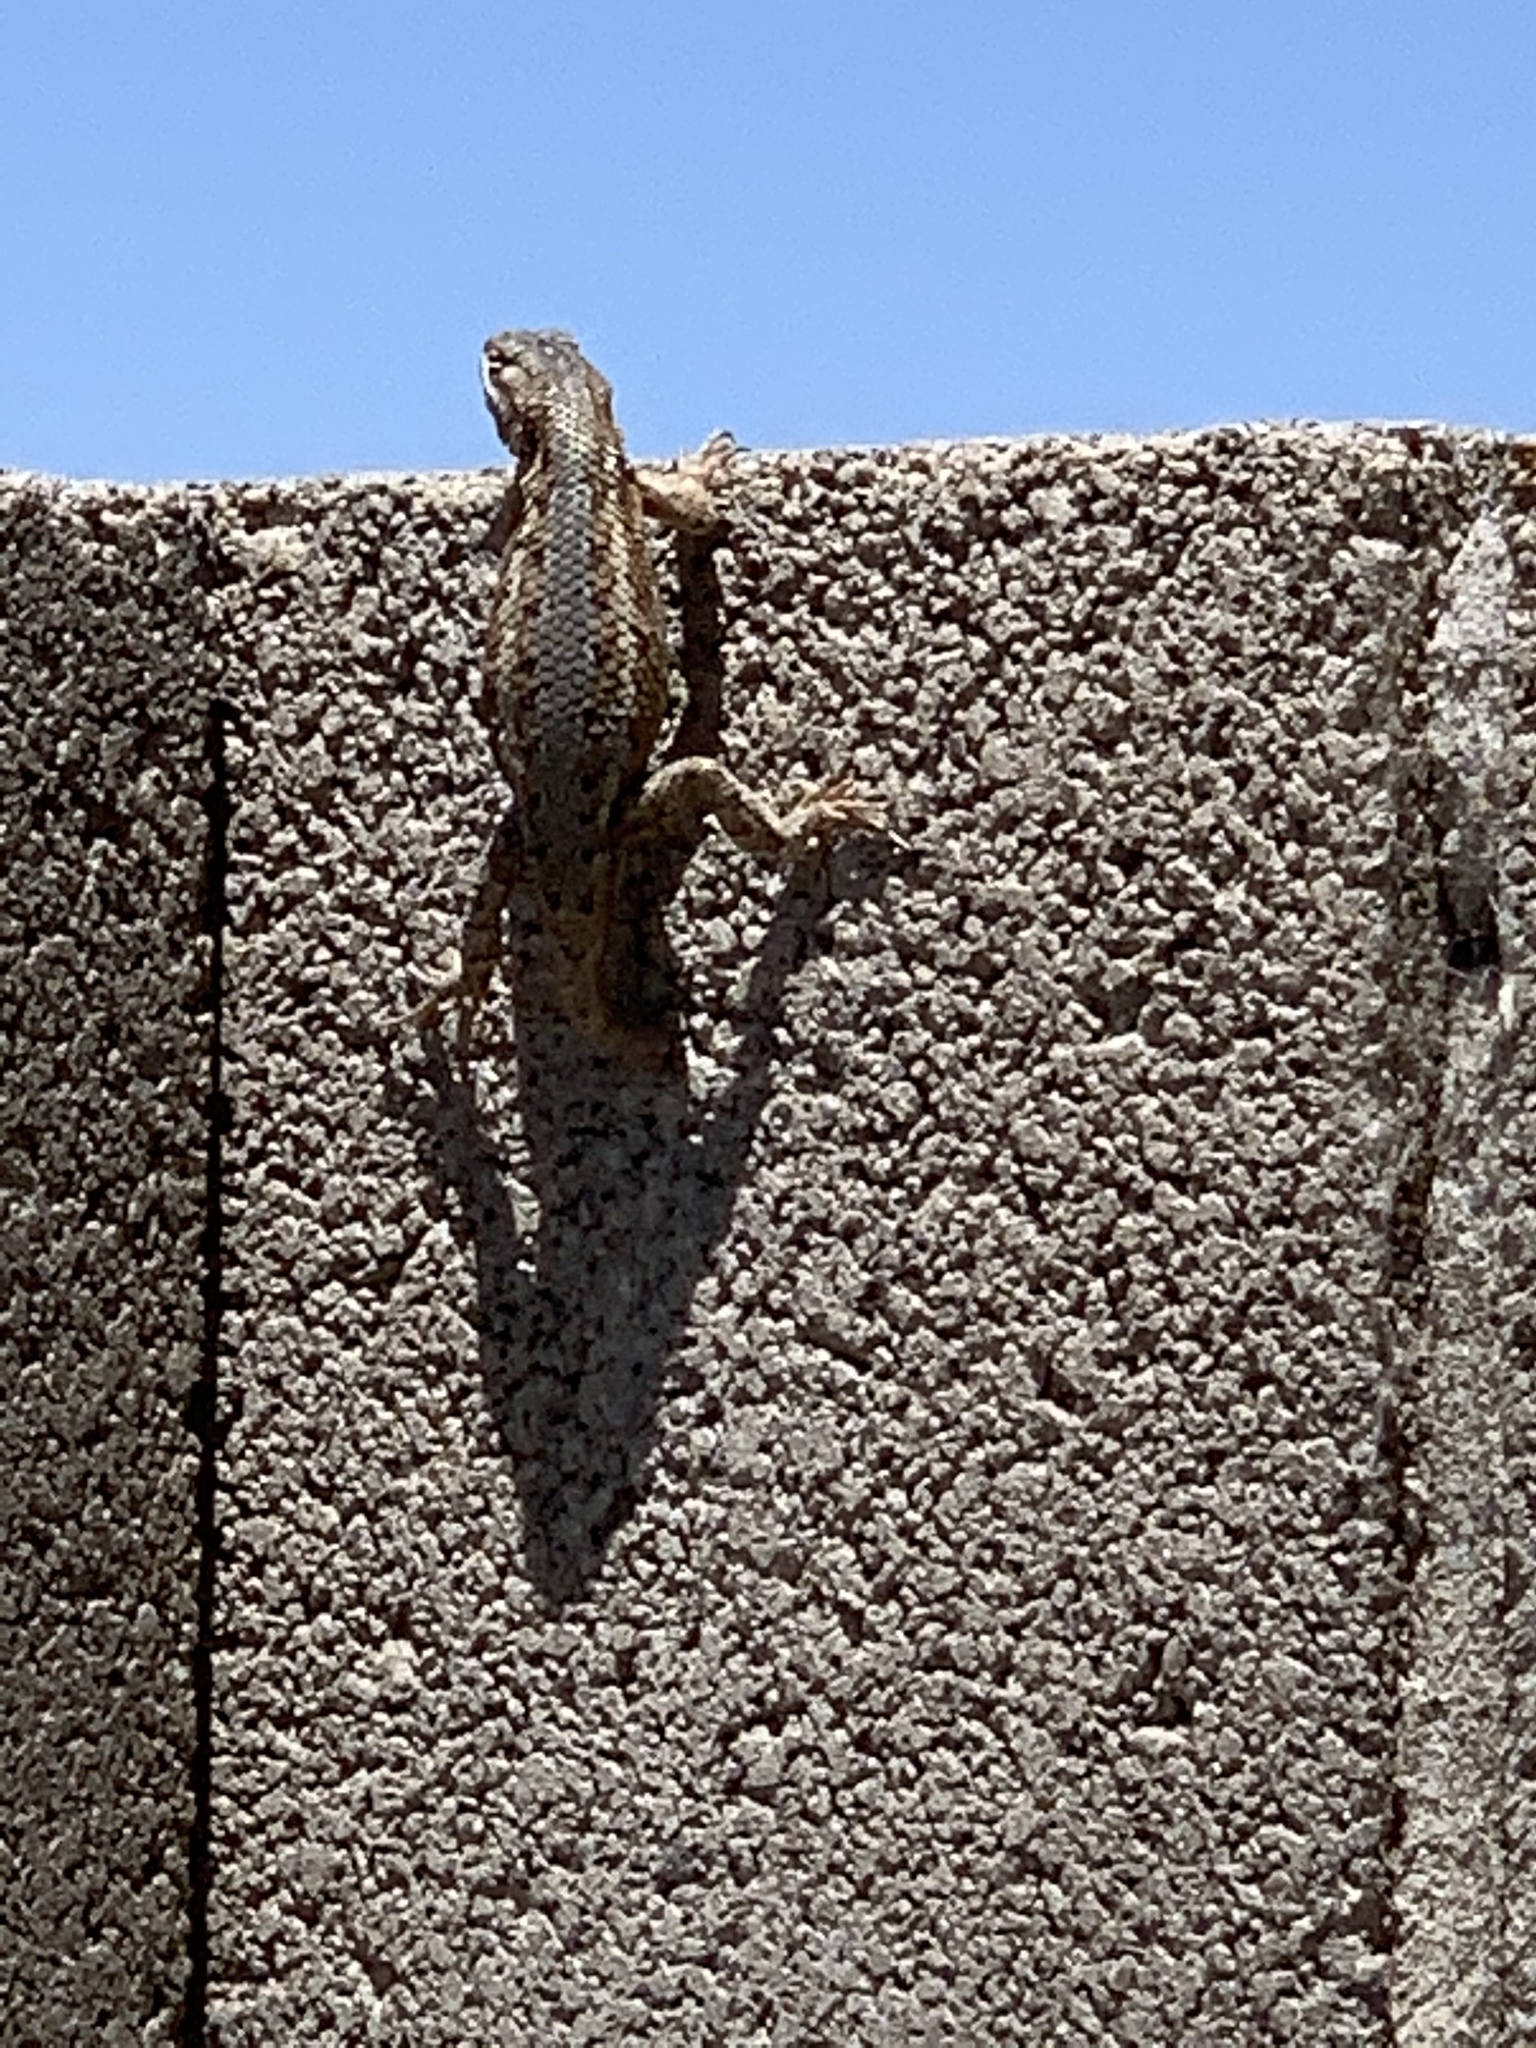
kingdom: Animalia
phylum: Chordata
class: Squamata
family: Phrynosomatidae
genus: Sceloporus
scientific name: Sceloporus cowlesi
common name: White sands prairie lizard
